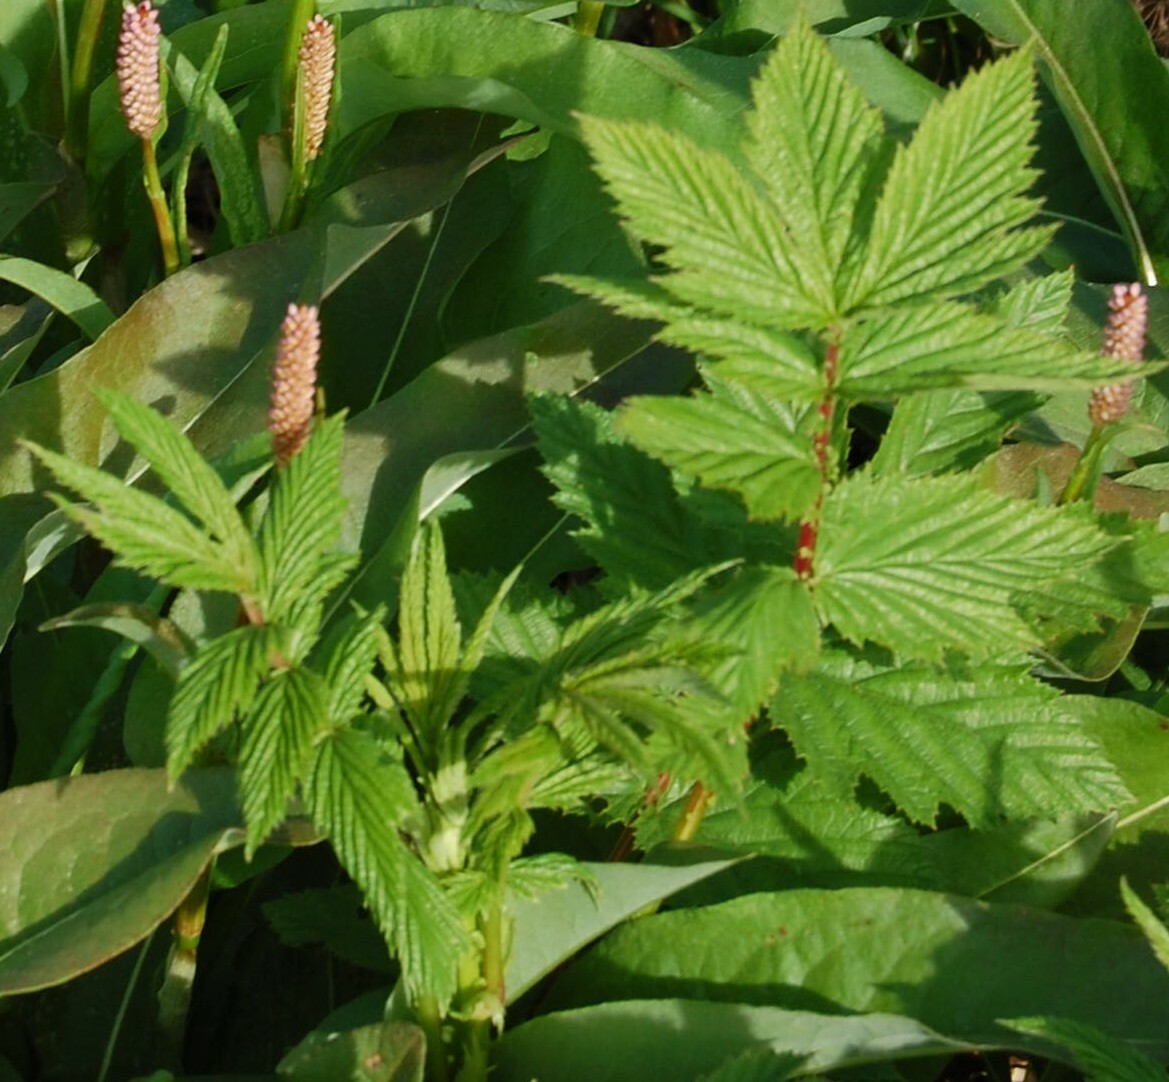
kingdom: Plantae
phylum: Tracheophyta
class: Magnoliopsida
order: Rosales
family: Rosaceae
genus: Filipendula
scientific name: Filipendula ulmaria
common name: Meadowsweet
